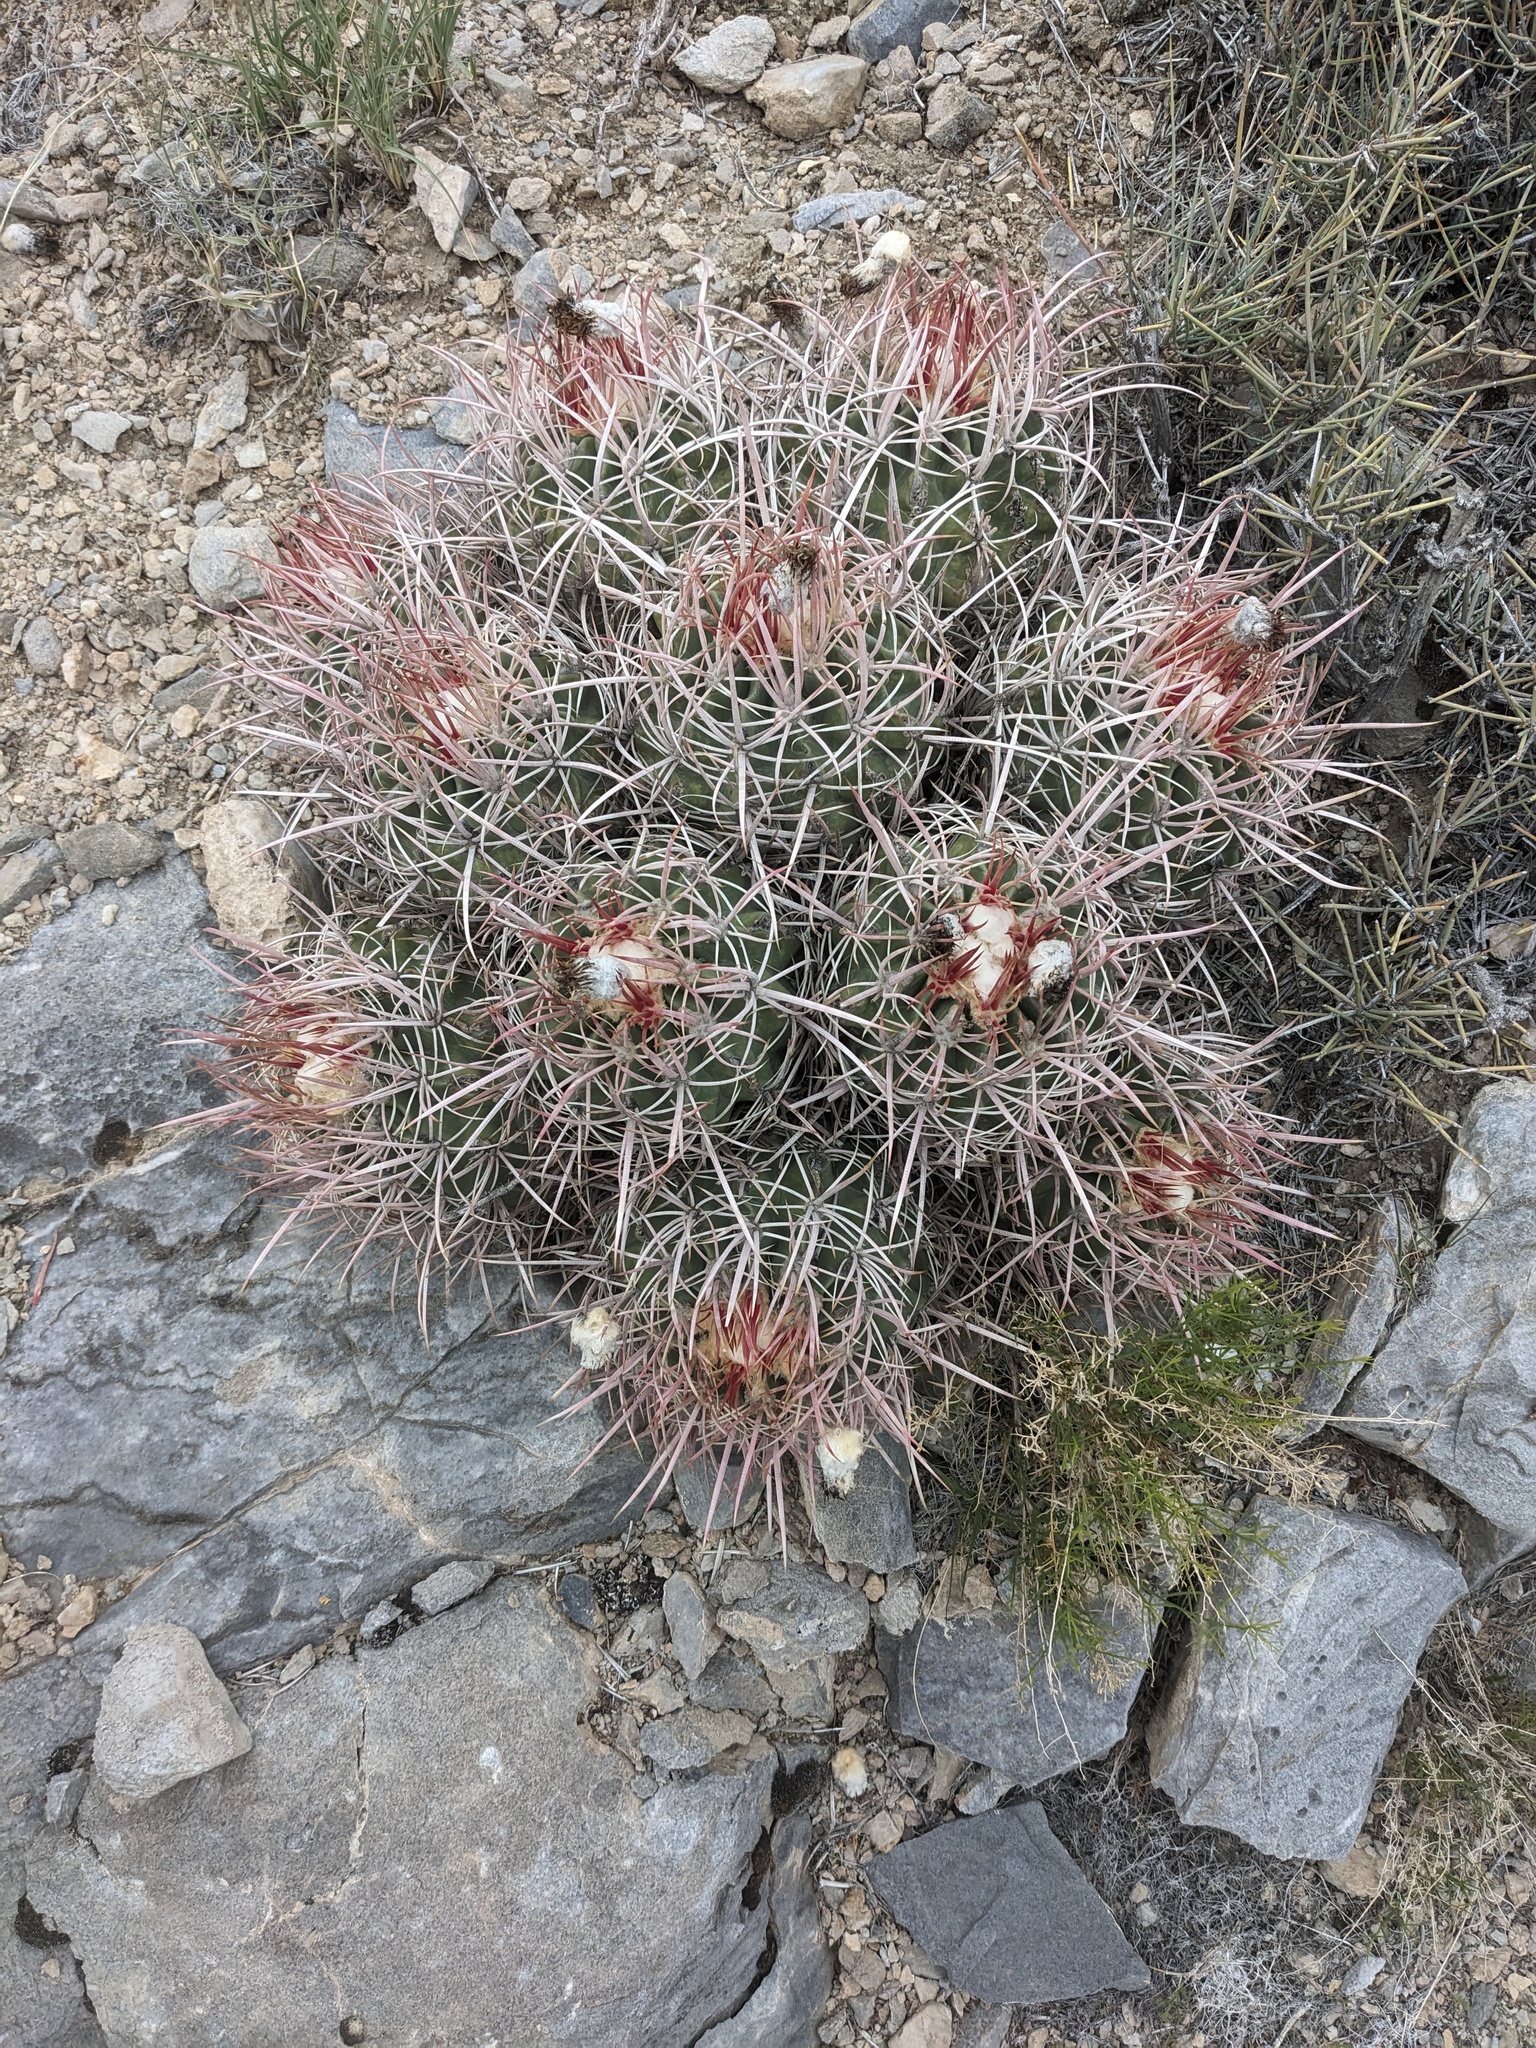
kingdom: Plantae
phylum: Tracheophyta
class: Magnoliopsida
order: Caryophyllales
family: Cactaceae
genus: Echinocactus
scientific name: Echinocactus polycephalus
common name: Cottontop cactus
